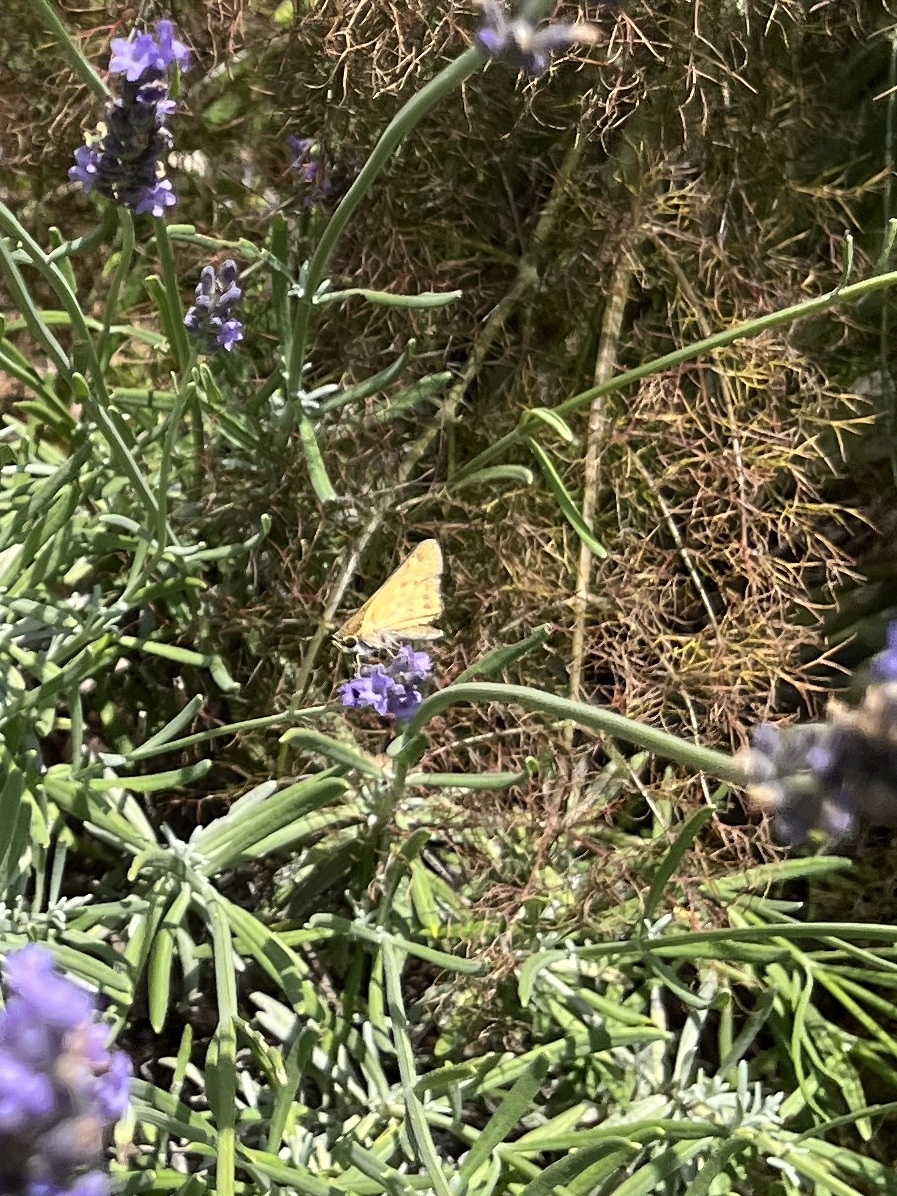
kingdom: Animalia
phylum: Arthropoda
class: Insecta
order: Lepidoptera
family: Hesperiidae
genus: Hylephila
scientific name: Hylephila phyleus
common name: Fiery skipper
